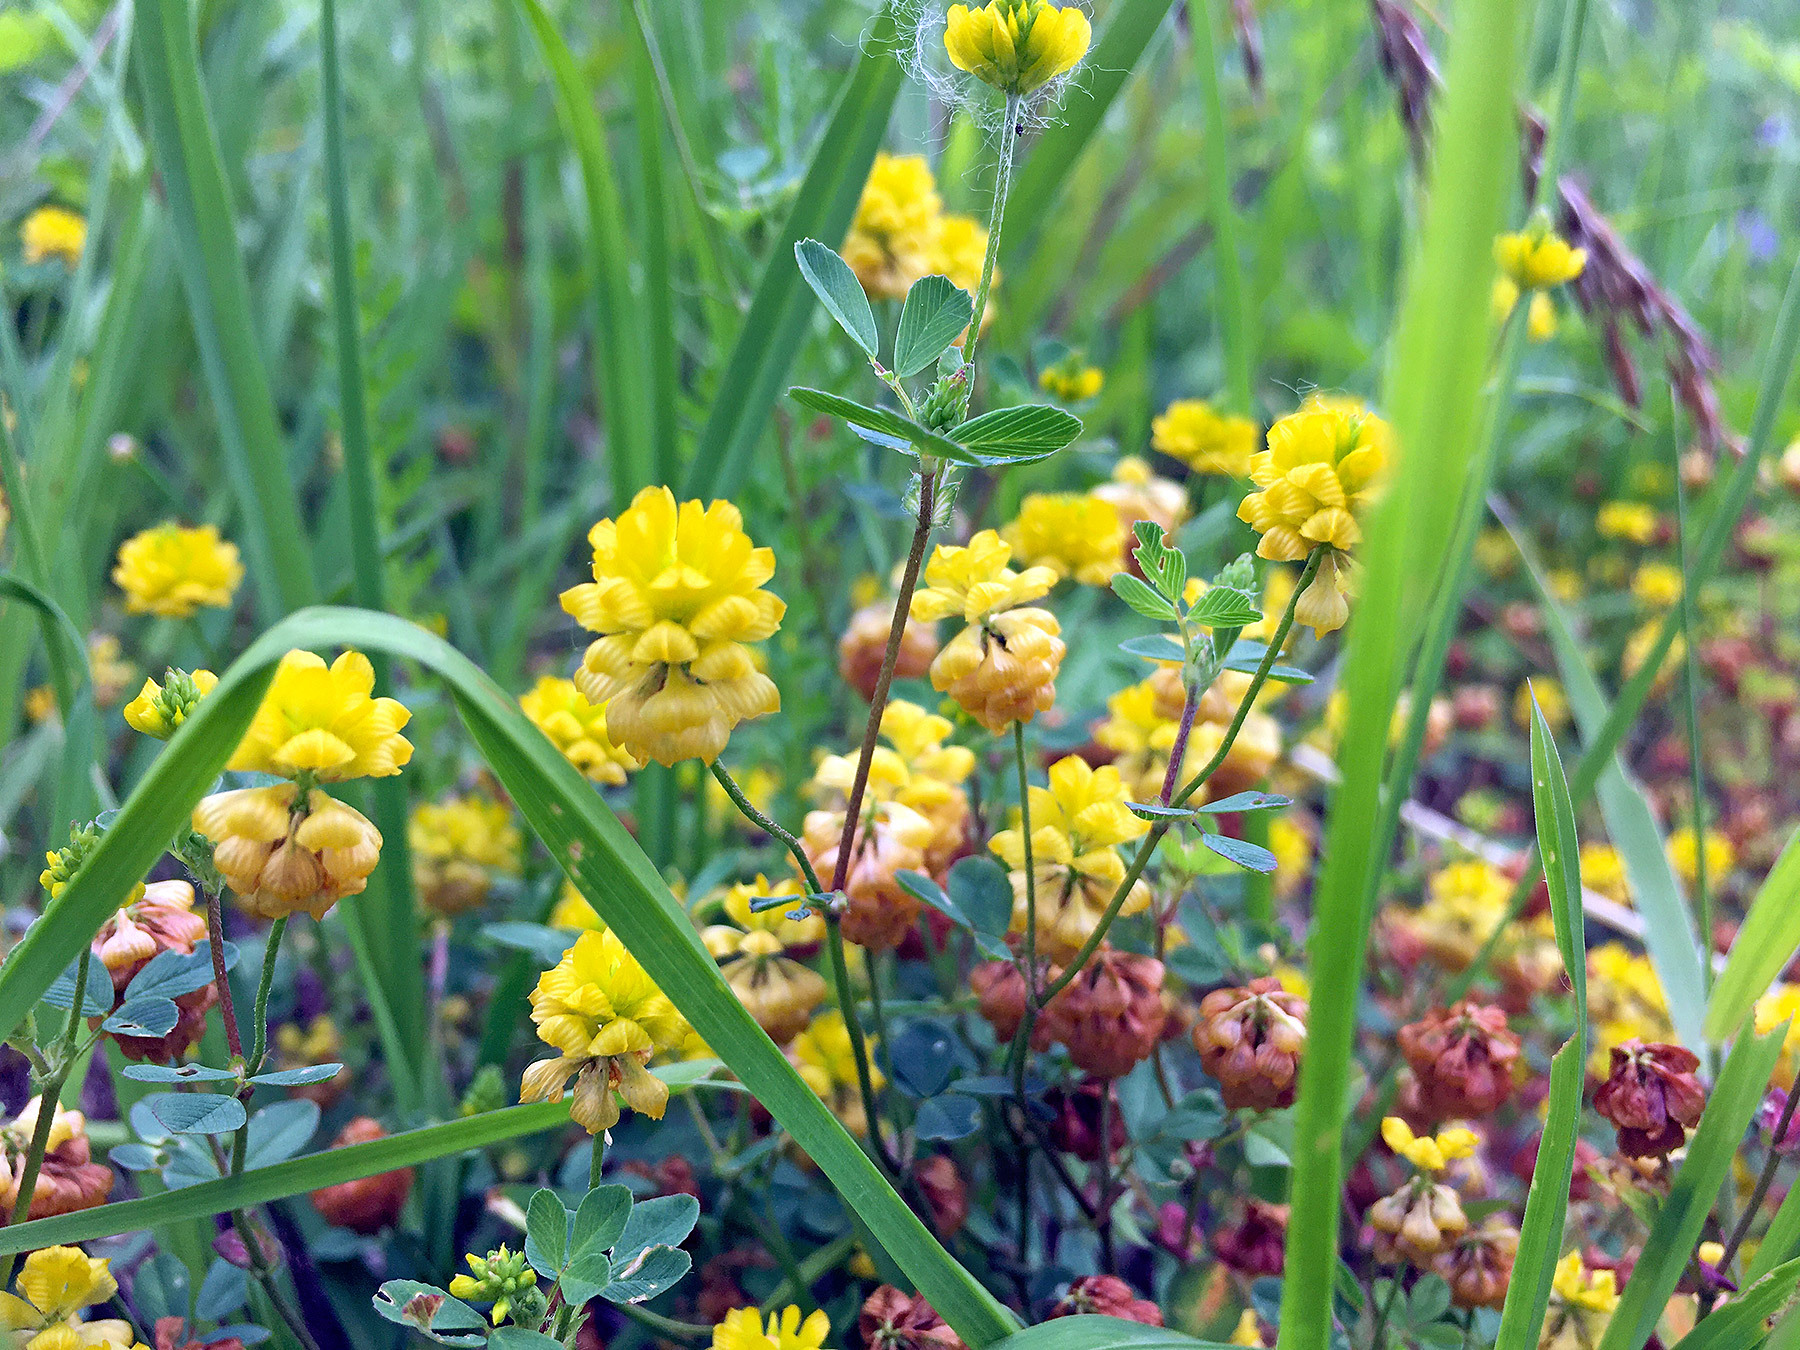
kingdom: Plantae
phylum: Tracheophyta
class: Magnoliopsida
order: Fabales
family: Fabaceae
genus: Trifolium
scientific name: Trifolium campestre
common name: Field clover
